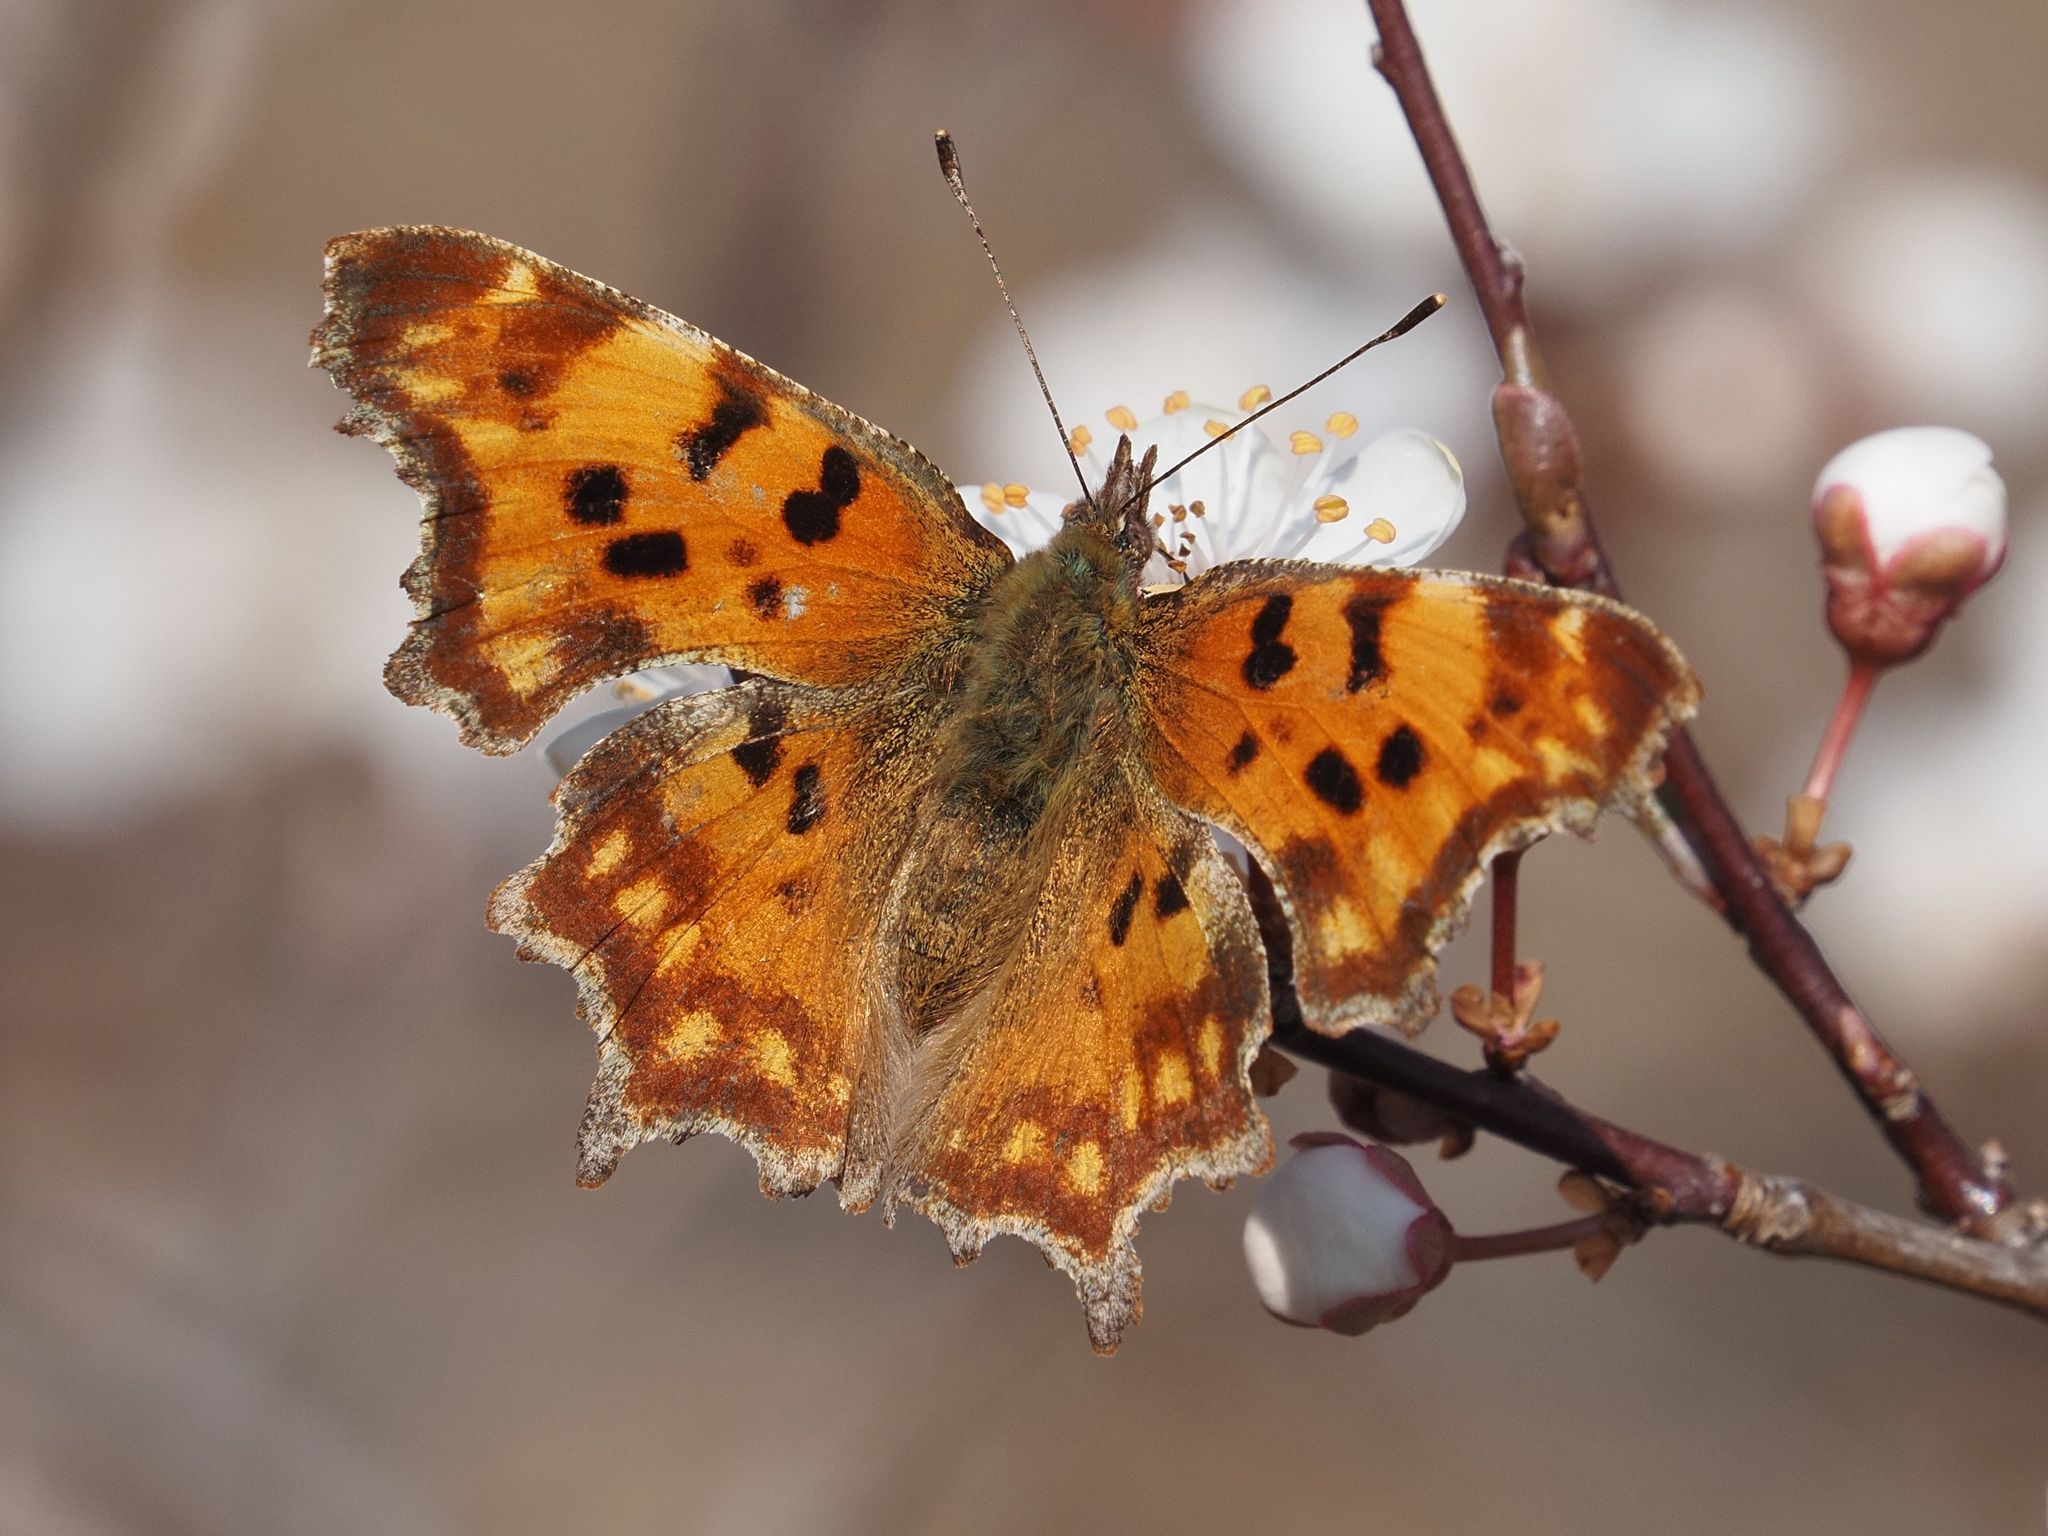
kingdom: Animalia
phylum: Arthropoda
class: Insecta
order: Lepidoptera
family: Nymphalidae
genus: Polygonia
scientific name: Polygonia c-album
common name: Comma
